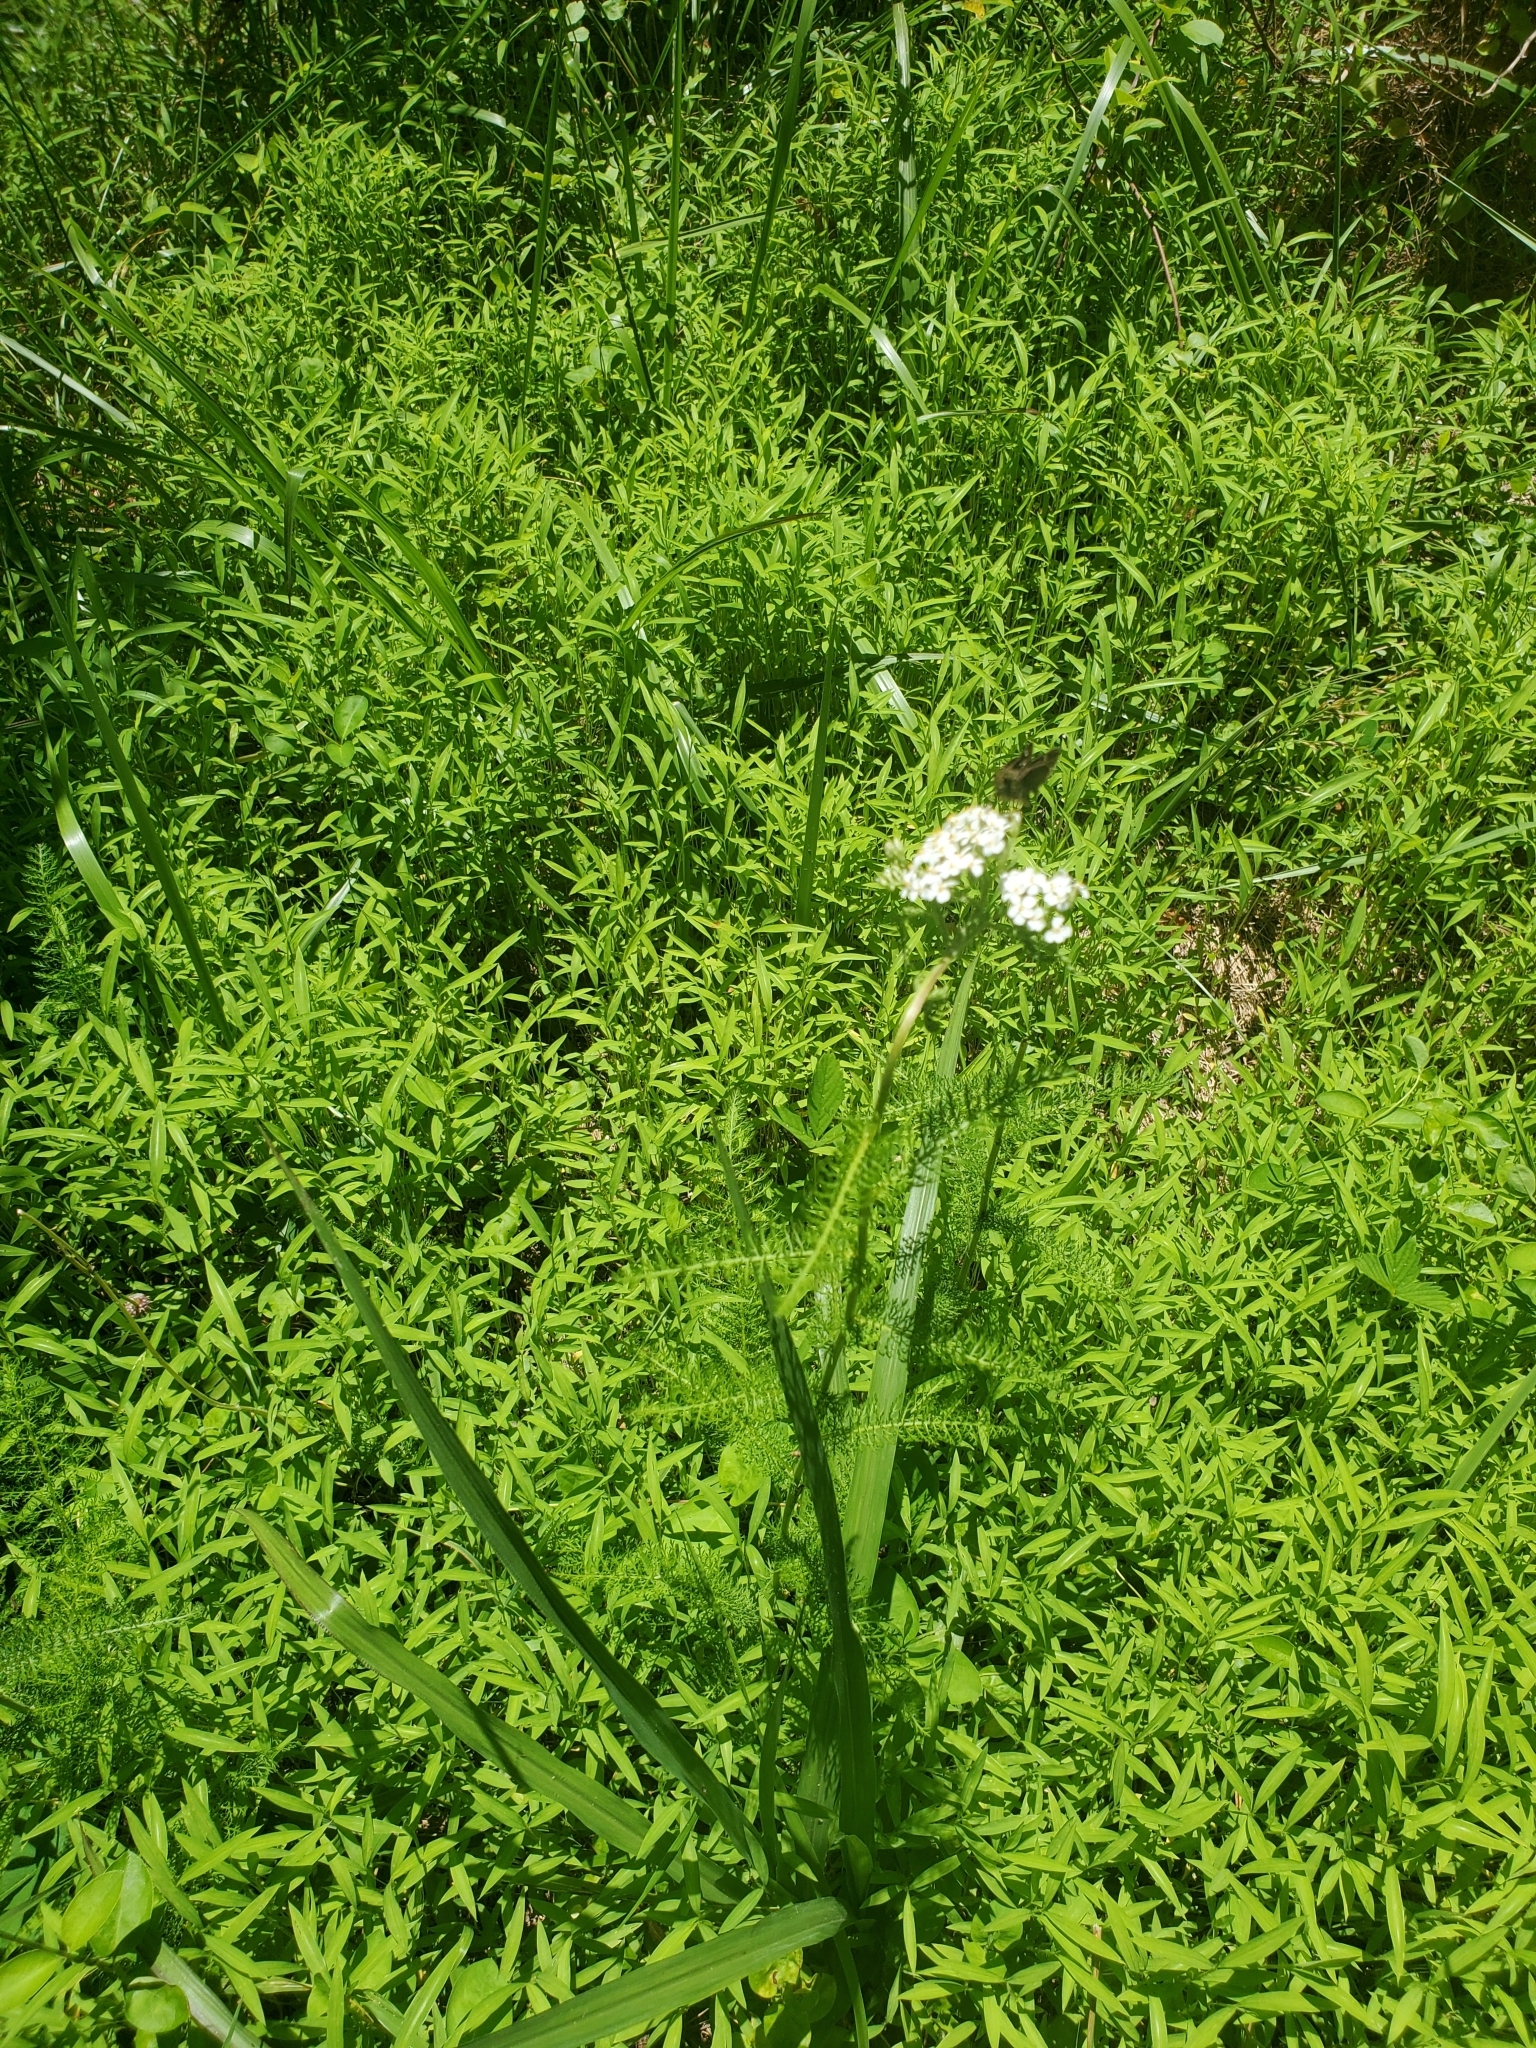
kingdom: Plantae
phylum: Tracheophyta
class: Magnoliopsida
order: Asterales
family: Asteraceae
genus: Achillea
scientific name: Achillea millefolium
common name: Yarrow
